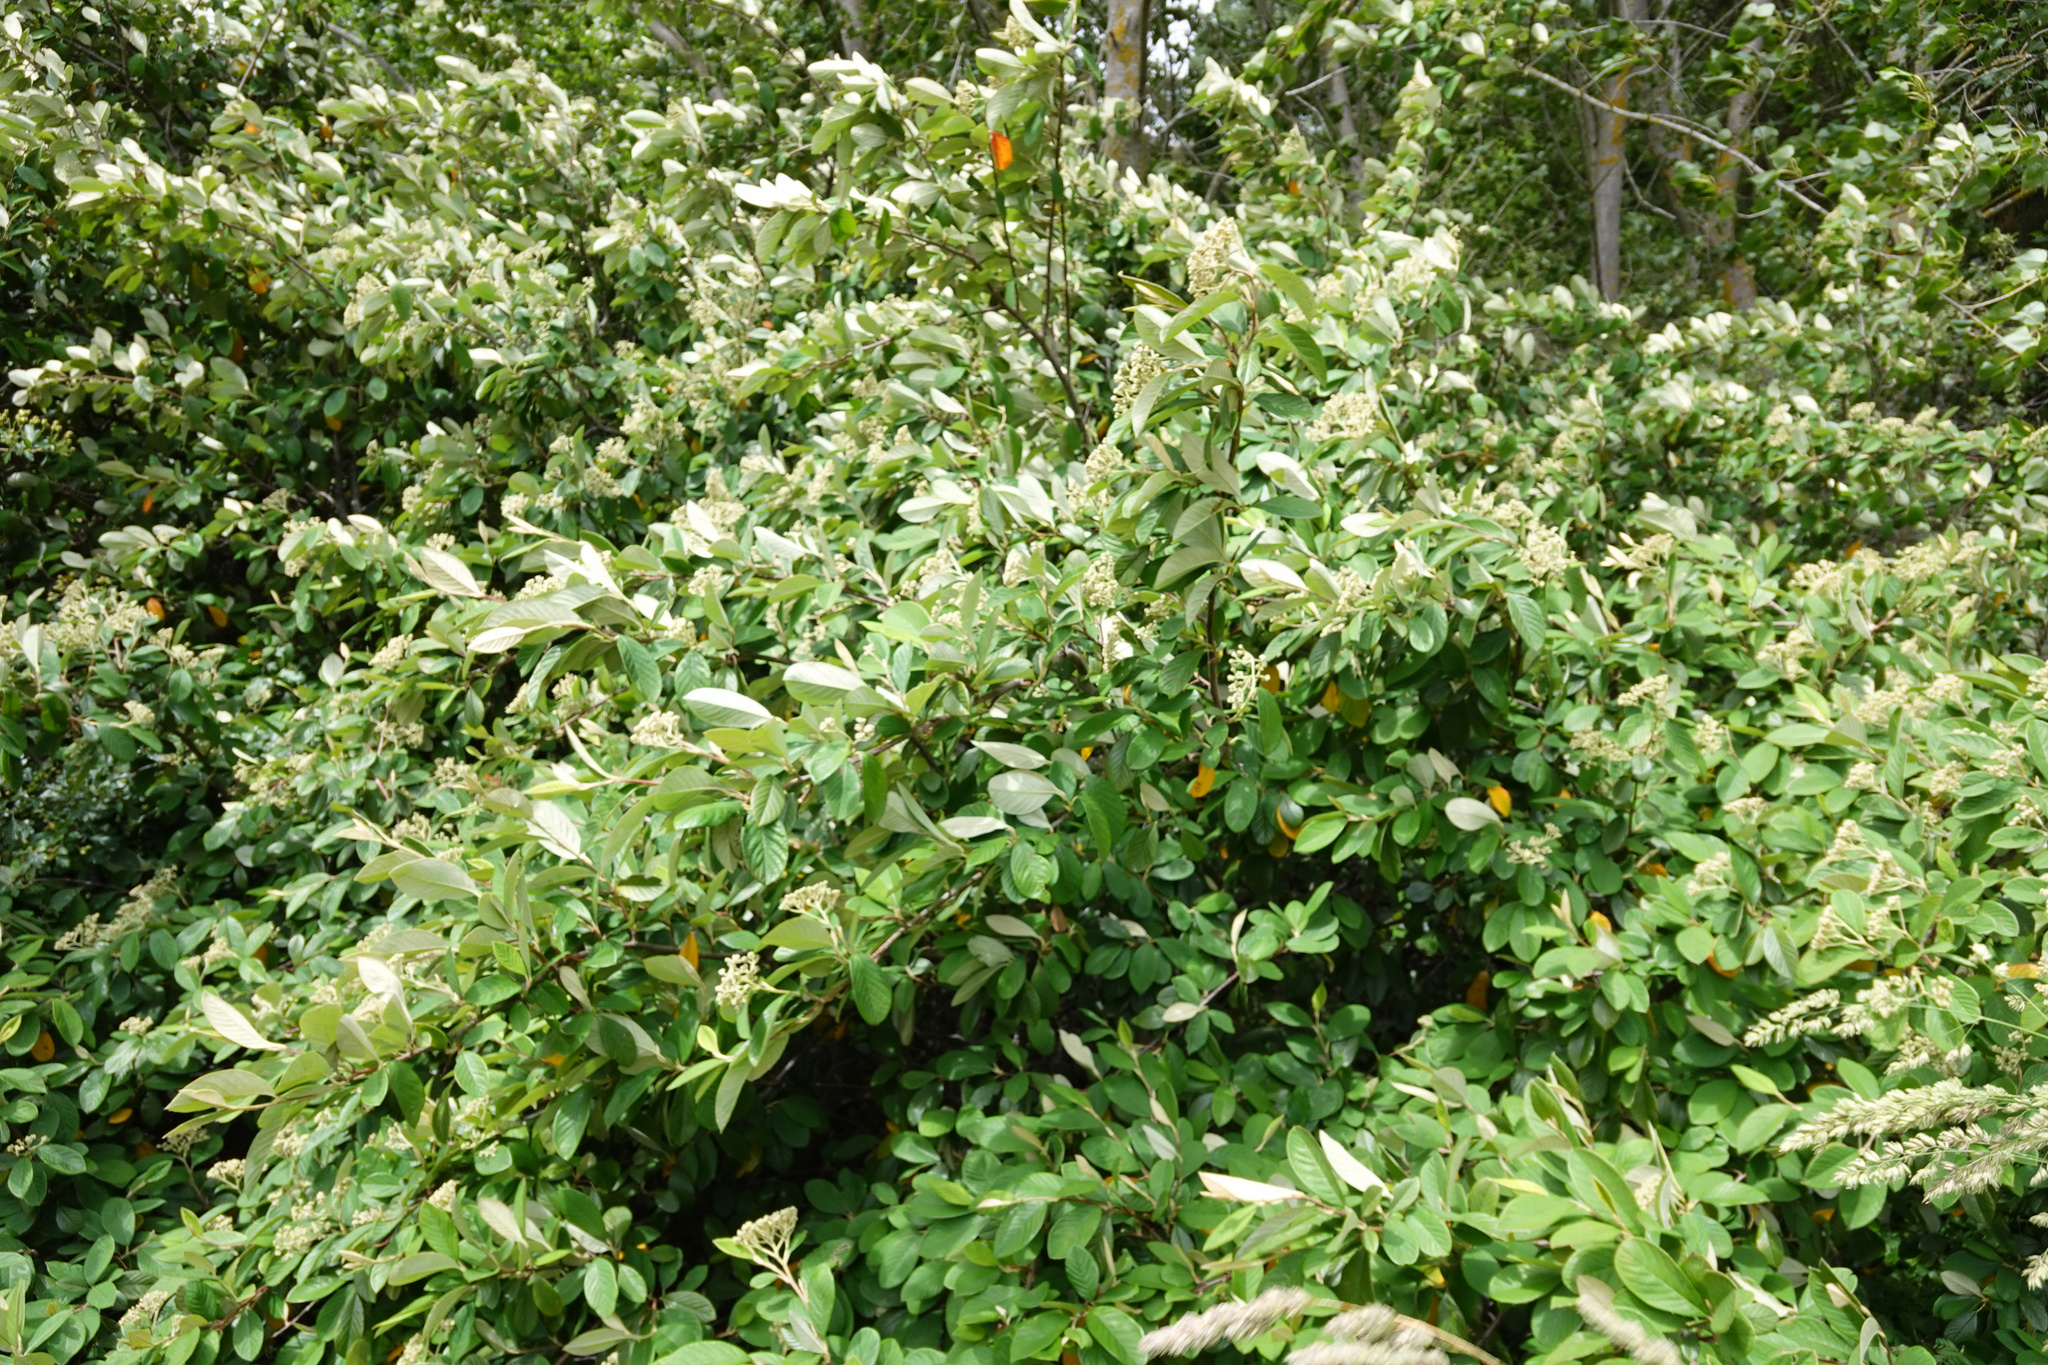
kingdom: Plantae
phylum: Tracheophyta
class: Magnoliopsida
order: Rosales
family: Rosaceae
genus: Cotoneaster
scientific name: Cotoneaster coriaceus
